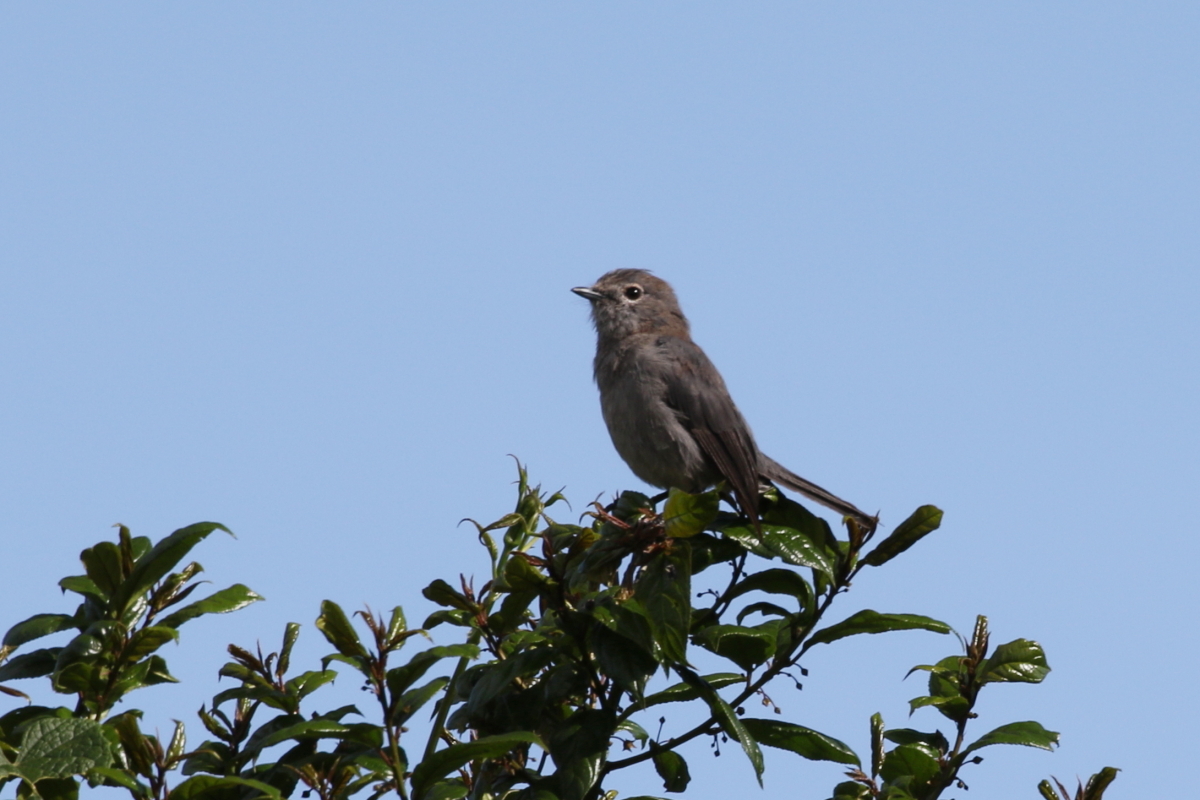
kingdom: Animalia
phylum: Chordata
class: Aves
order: Passeriformes
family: Muscicapidae
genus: Dioptrornis
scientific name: Dioptrornis fischeri
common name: White-eyed slaty flycatcher
